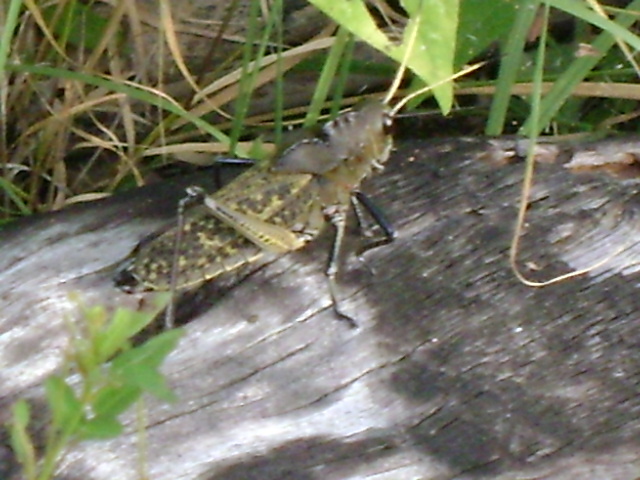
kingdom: Animalia
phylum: Arthropoda
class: Insecta
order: Orthoptera
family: Romaleidae
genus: Romalea
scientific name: Romalea
